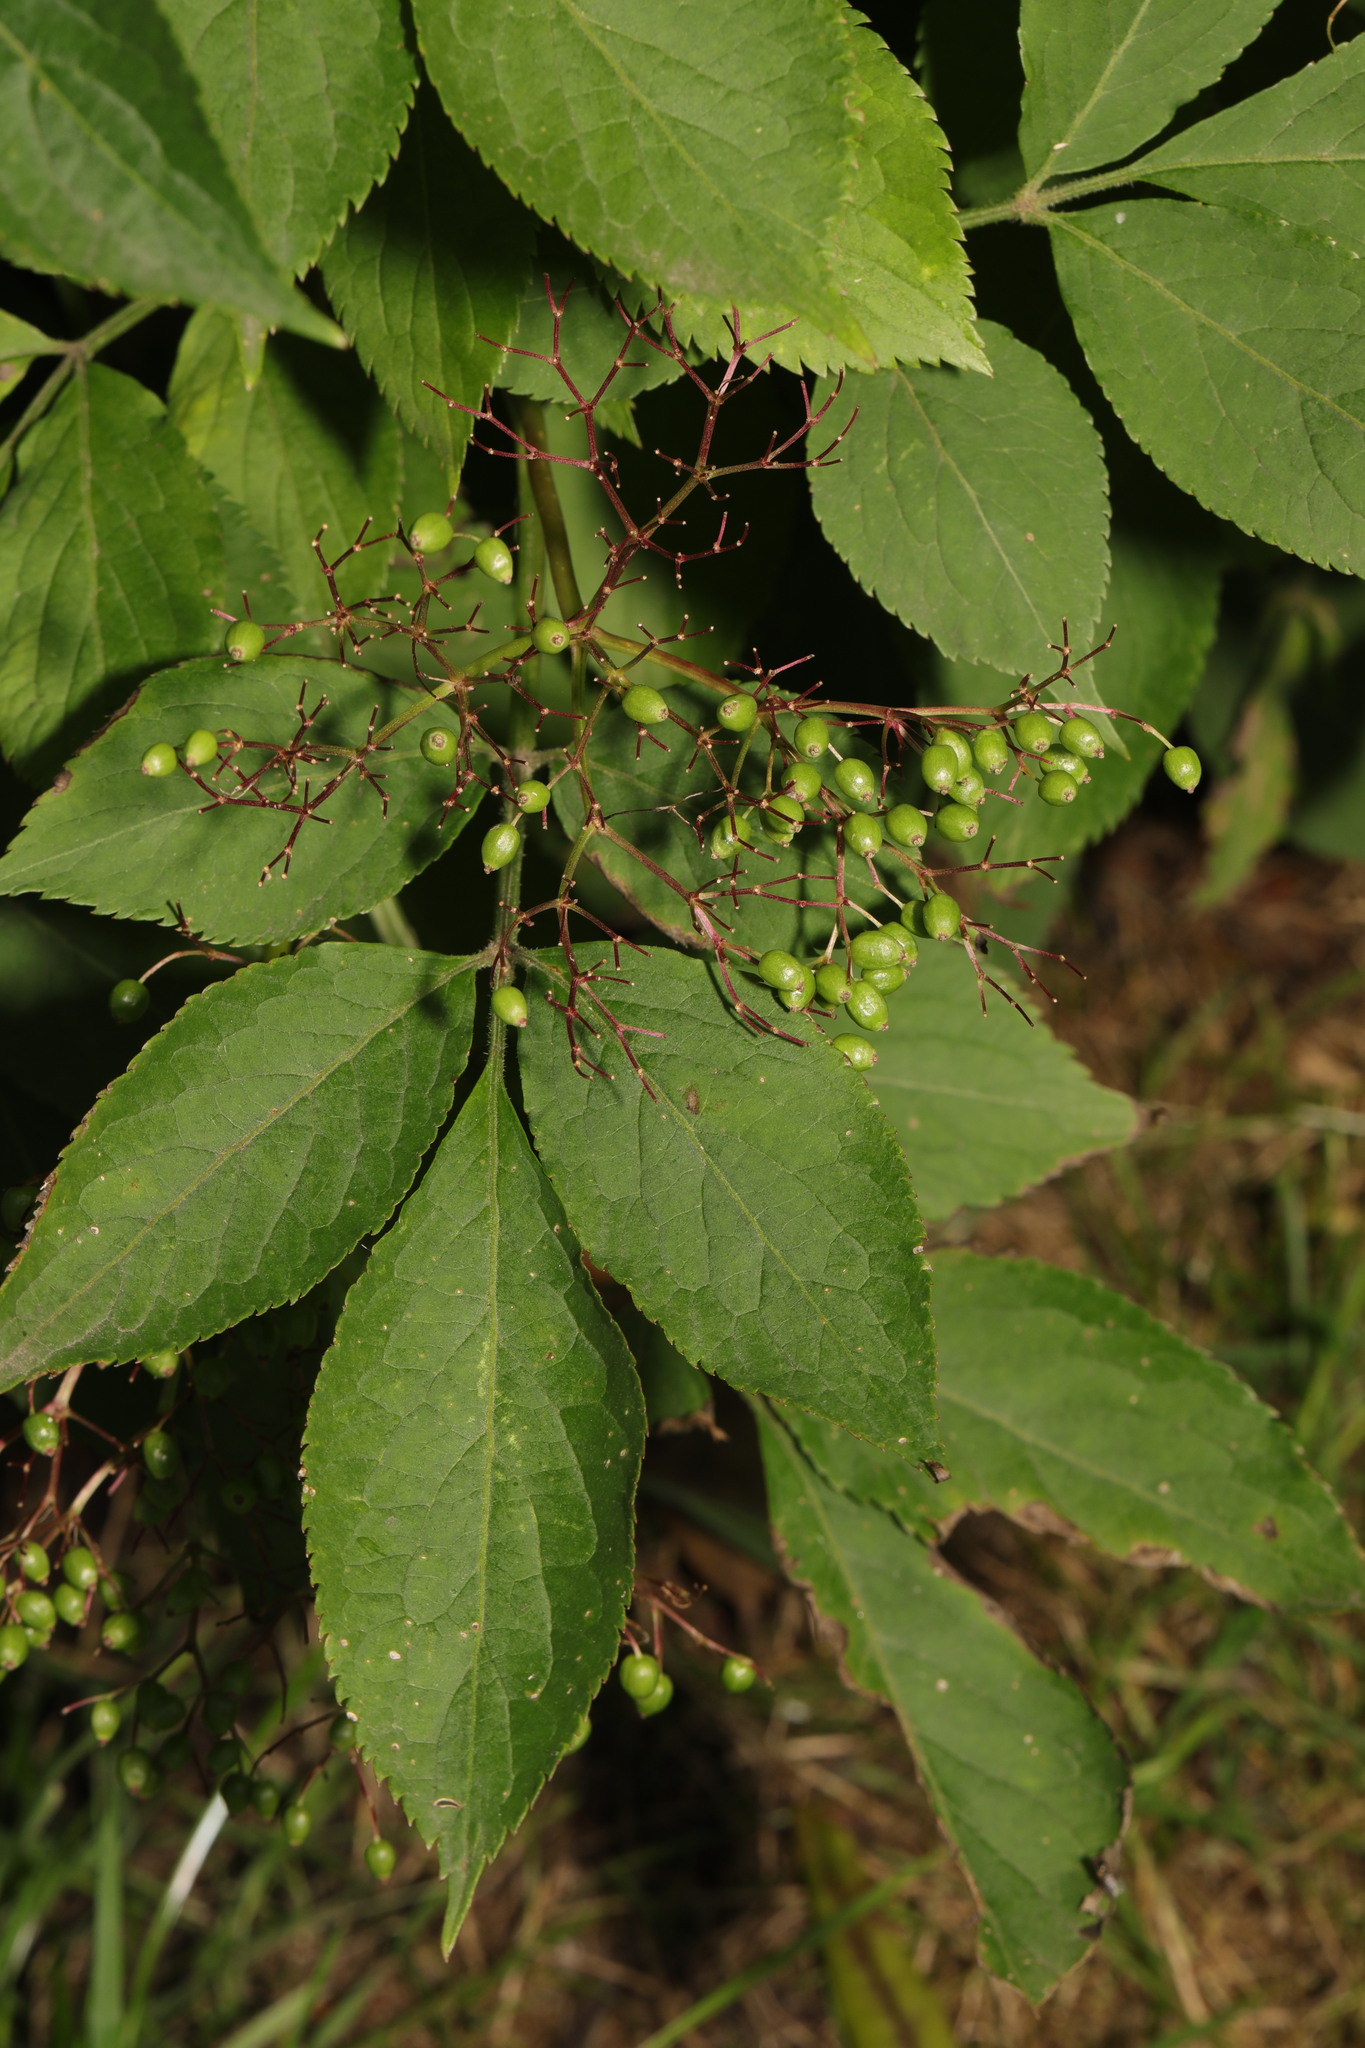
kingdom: Plantae
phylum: Tracheophyta
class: Magnoliopsida
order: Dipsacales
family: Viburnaceae
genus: Sambucus
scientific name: Sambucus nigra
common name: Elder
